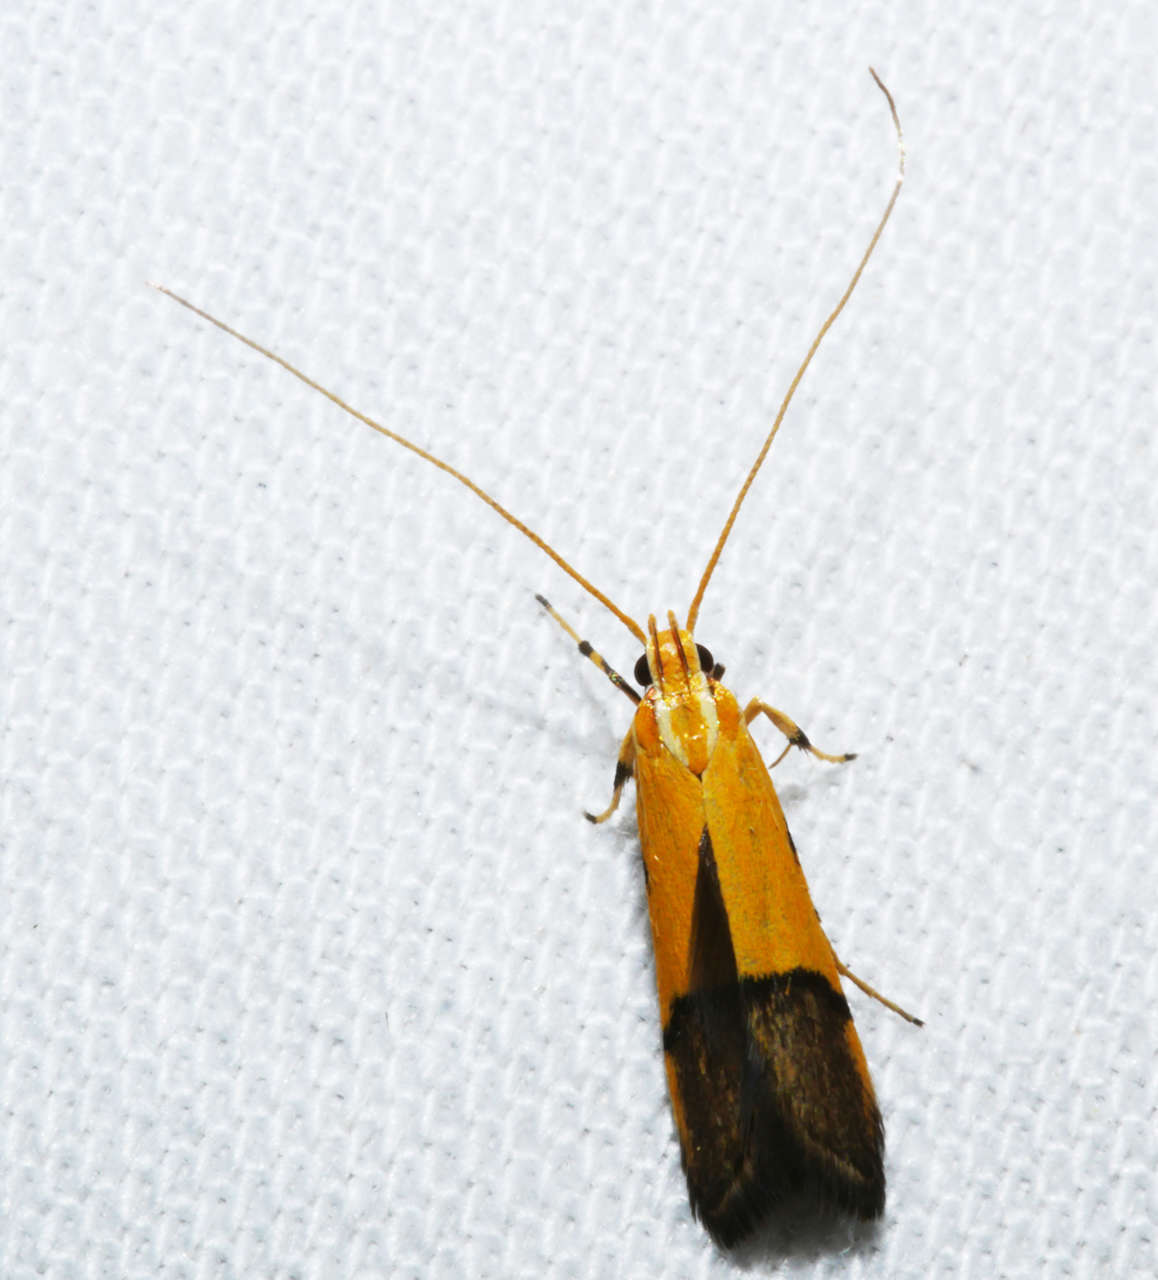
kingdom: Animalia
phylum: Arthropoda
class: Insecta
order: Lepidoptera
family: Lecithoceridae
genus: Crocanthes
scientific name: Crocanthes micradelpha
